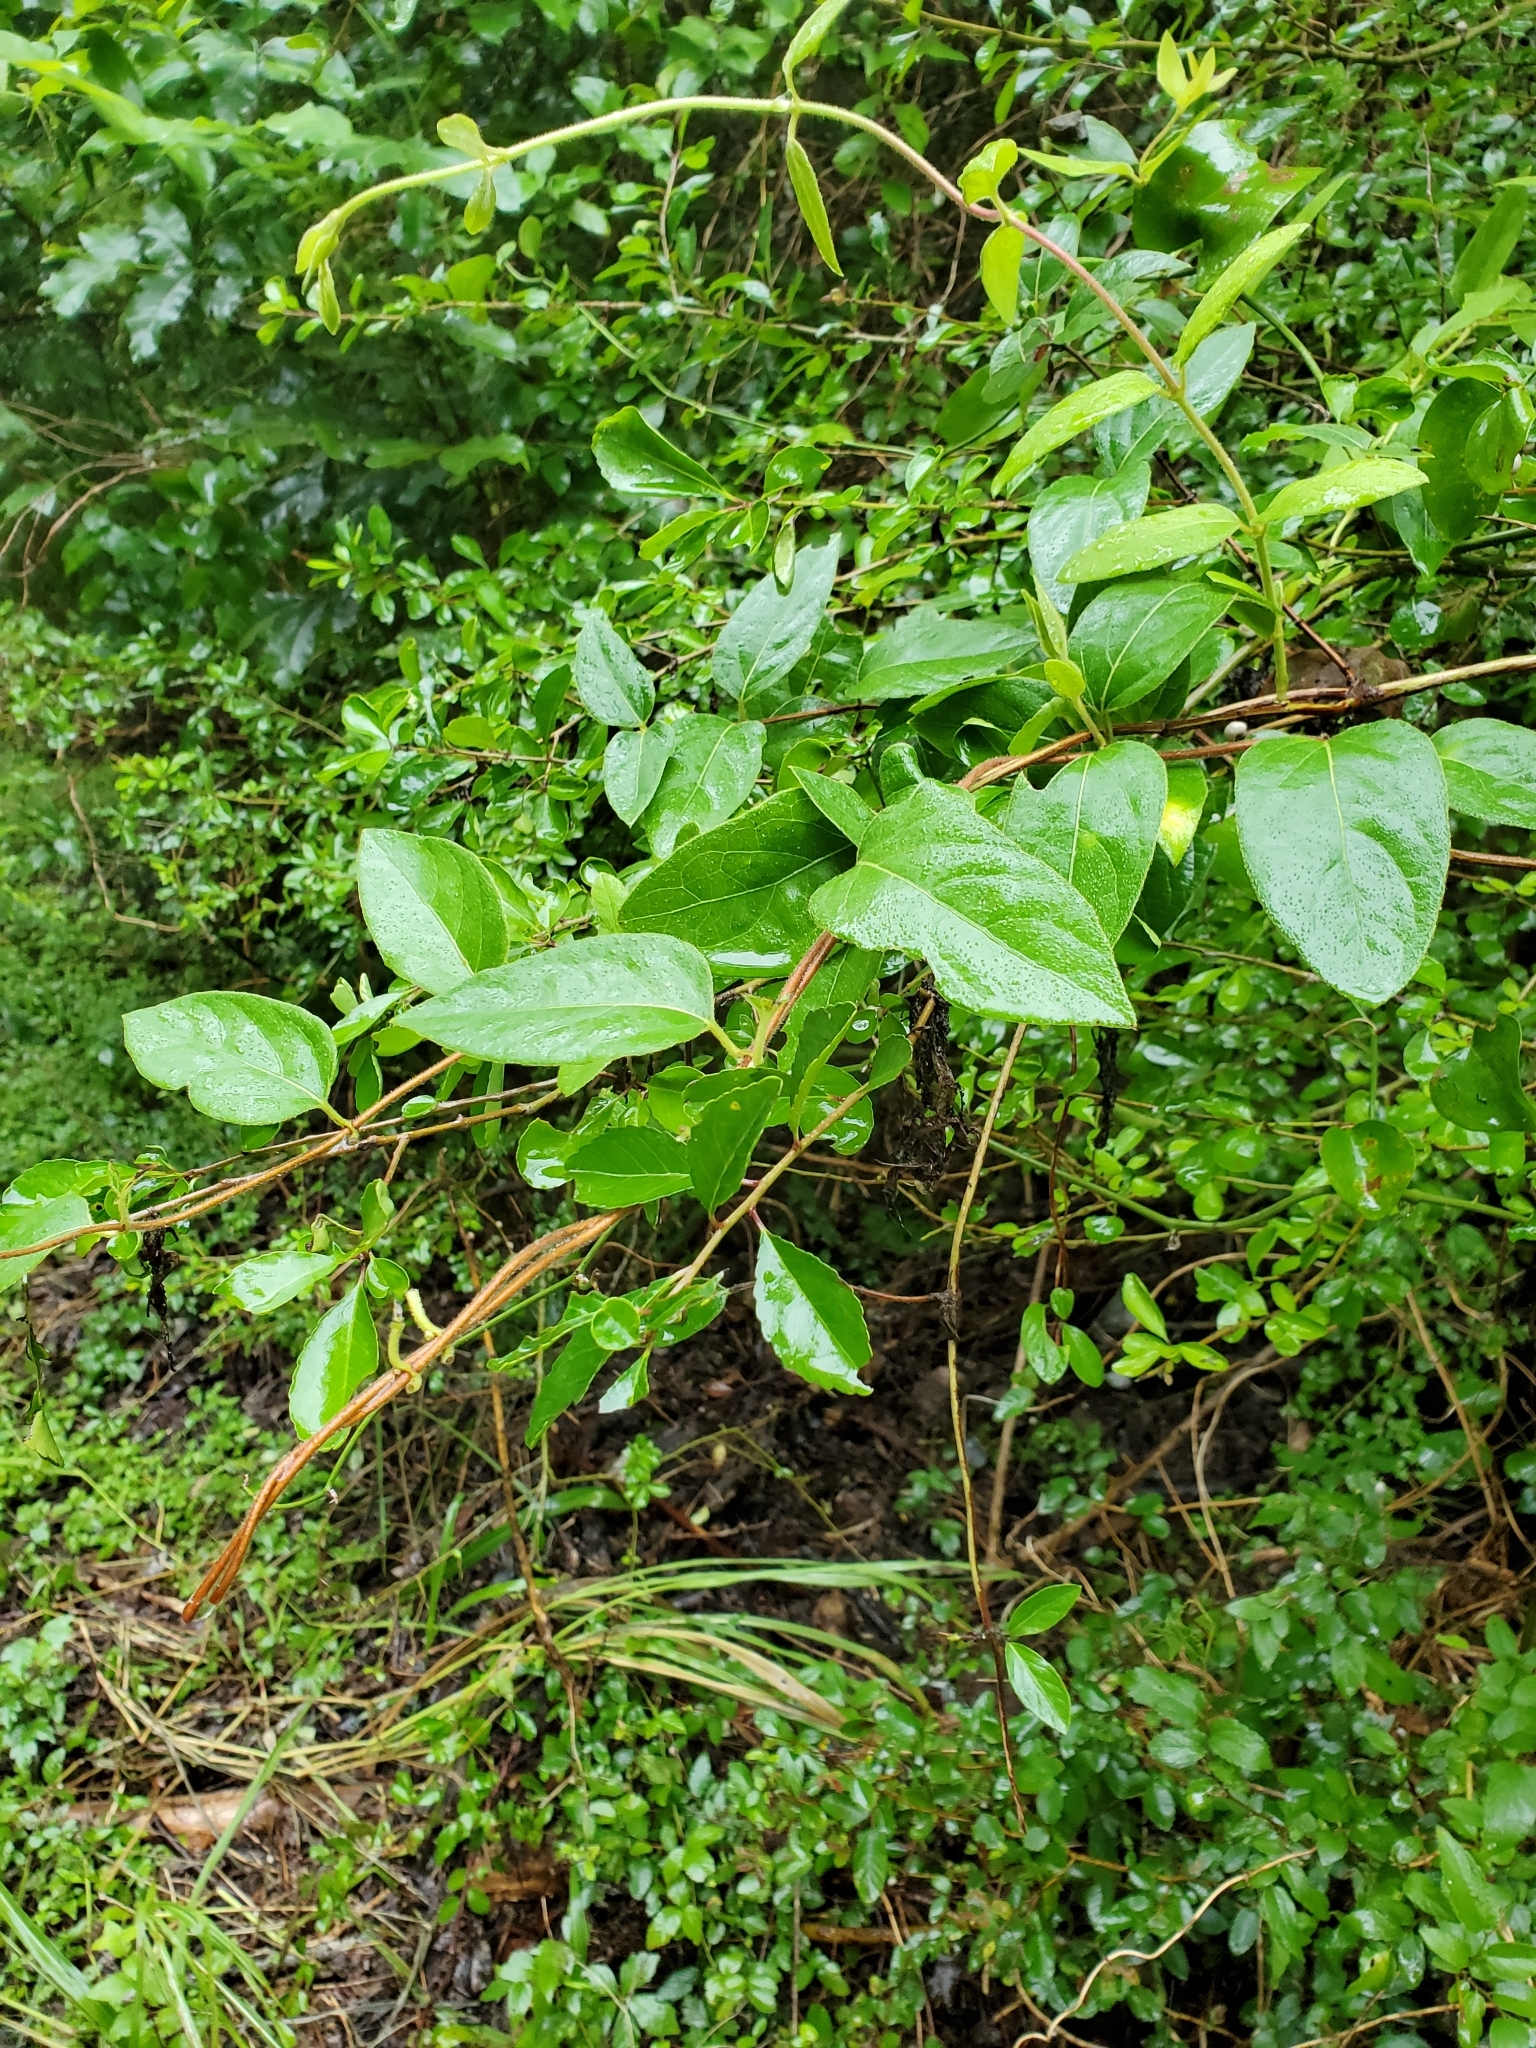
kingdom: Plantae
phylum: Tracheophyta
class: Magnoliopsida
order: Dipsacales
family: Caprifoliaceae
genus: Lonicera
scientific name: Lonicera japonica
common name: Japanese honeysuckle
